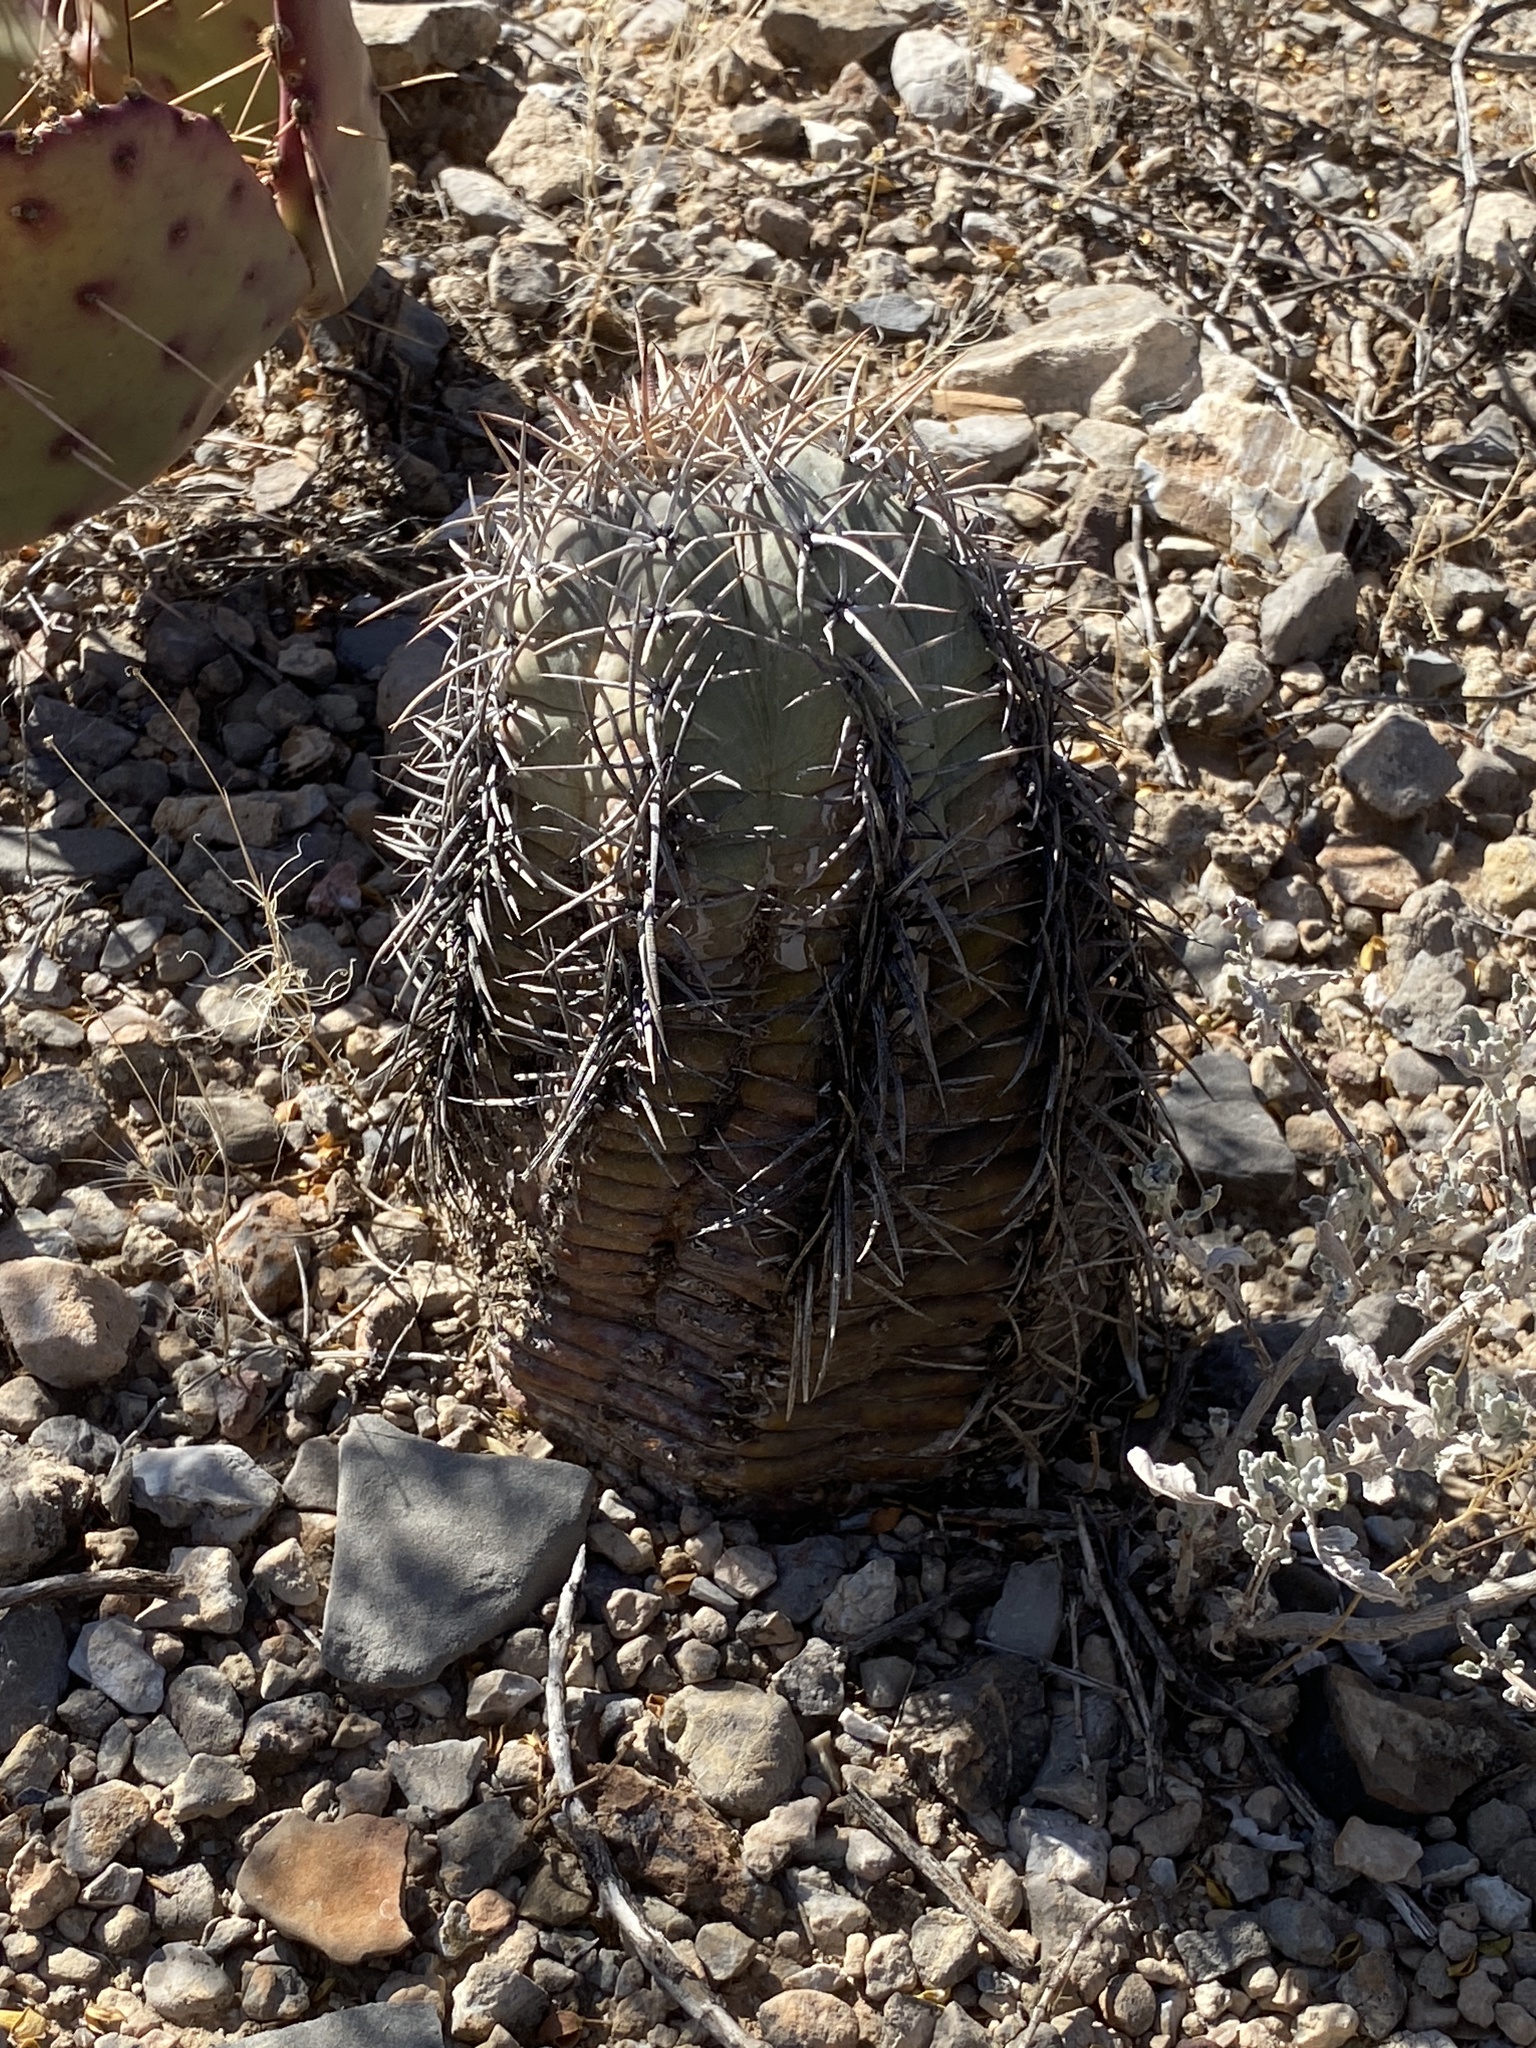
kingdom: Plantae
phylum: Tracheophyta
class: Magnoliopsida
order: Caryophyllales
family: Cactaceae
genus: Echinocactus
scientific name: Echinocactus horizonthalonius
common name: Devilshead
